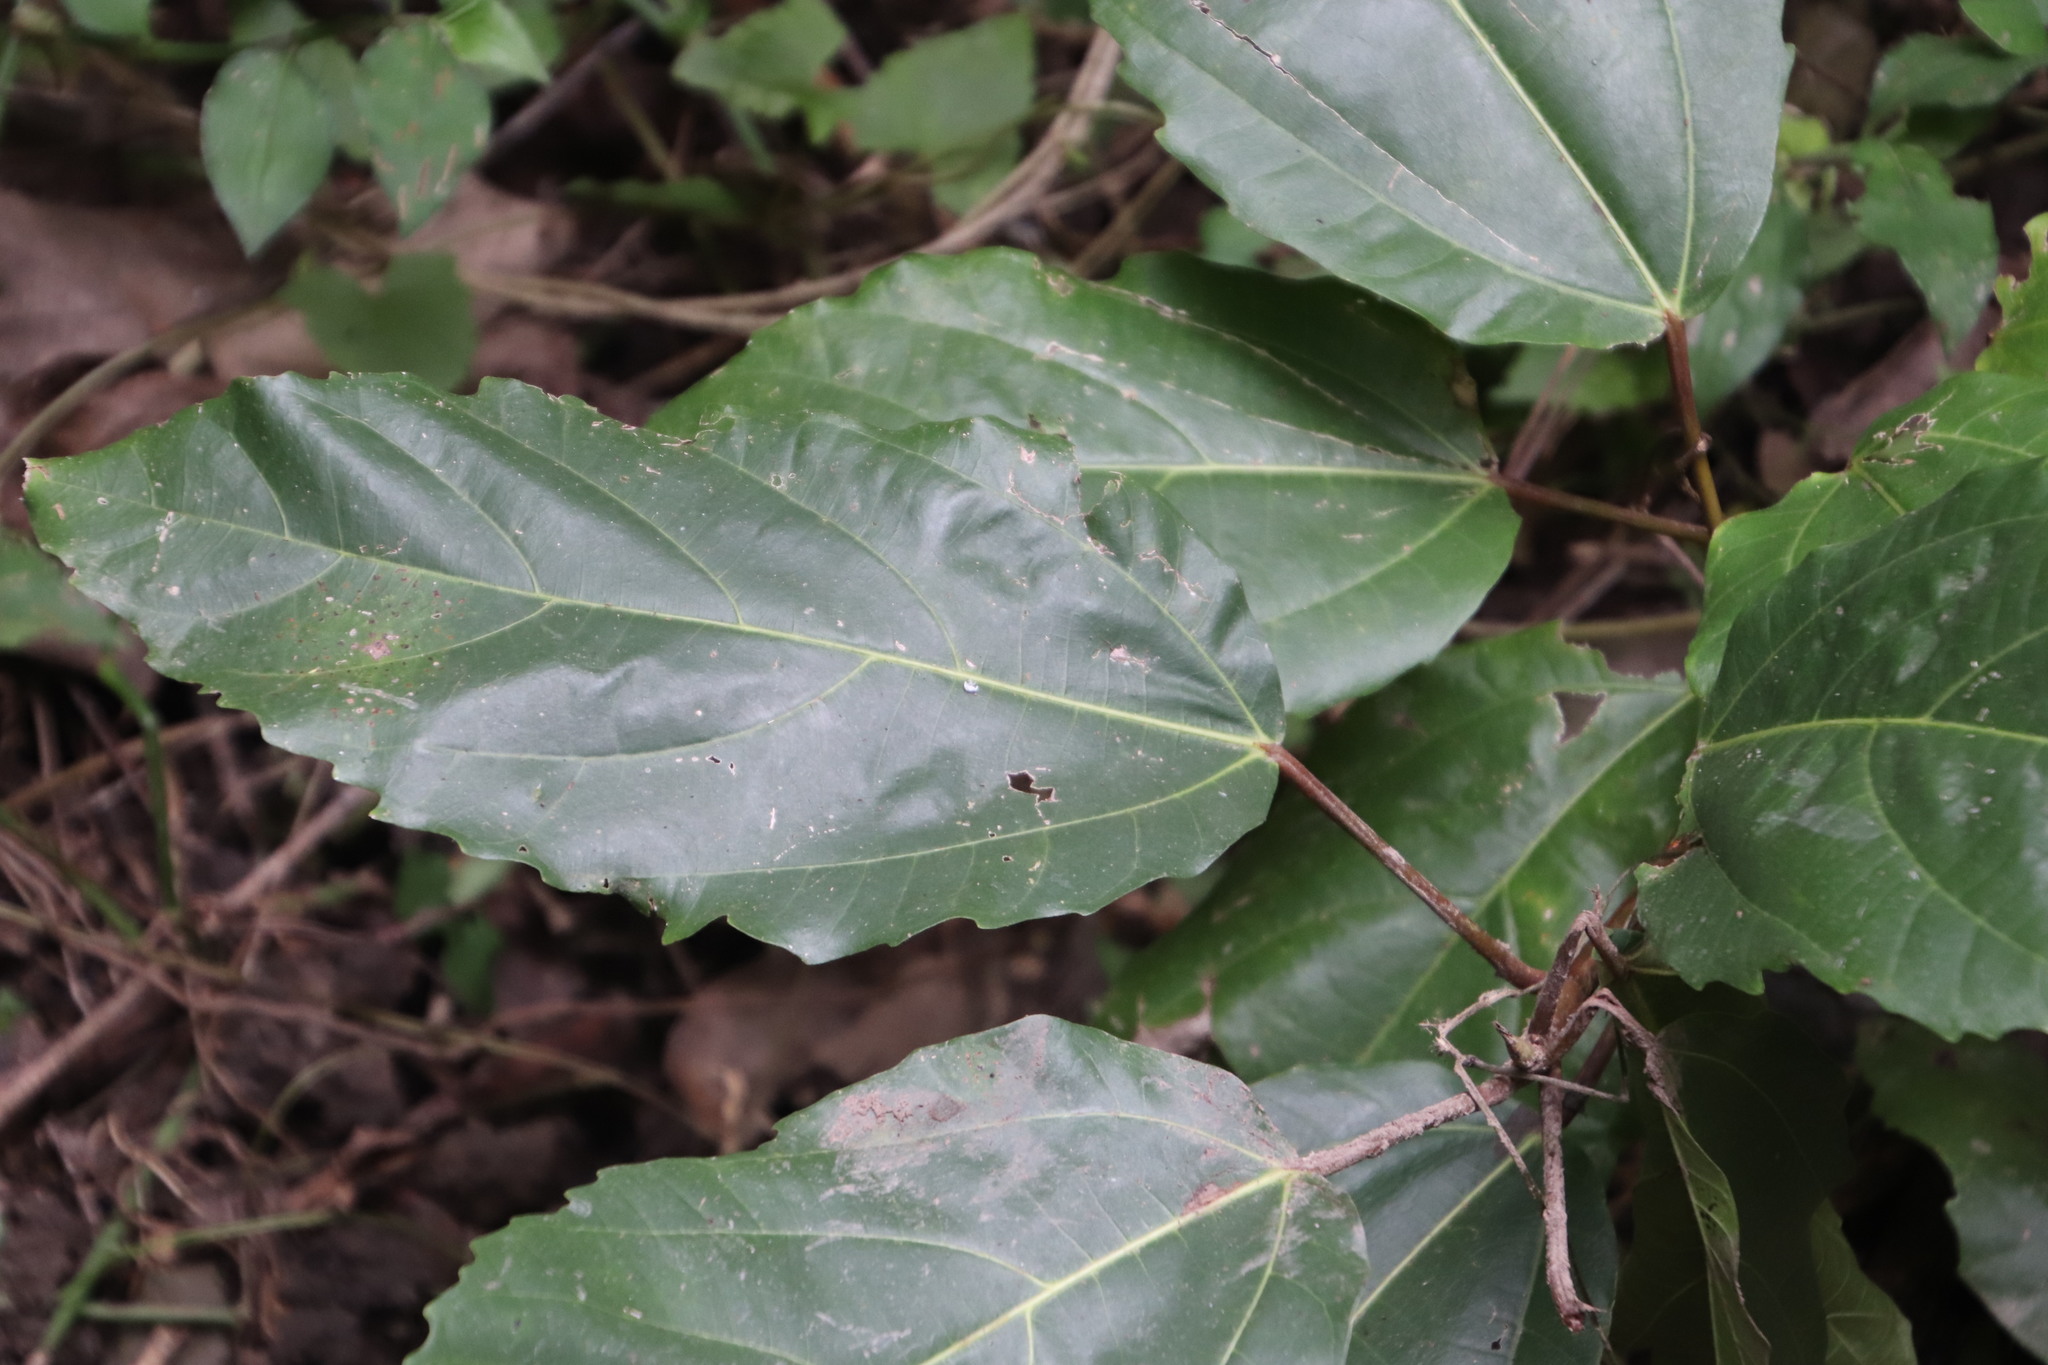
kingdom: Plantae
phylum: Tracheophyta
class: Magnoliopsida
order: Rosales
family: Moraceae
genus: Ficus
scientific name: Ficus sur
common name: Cape fig
